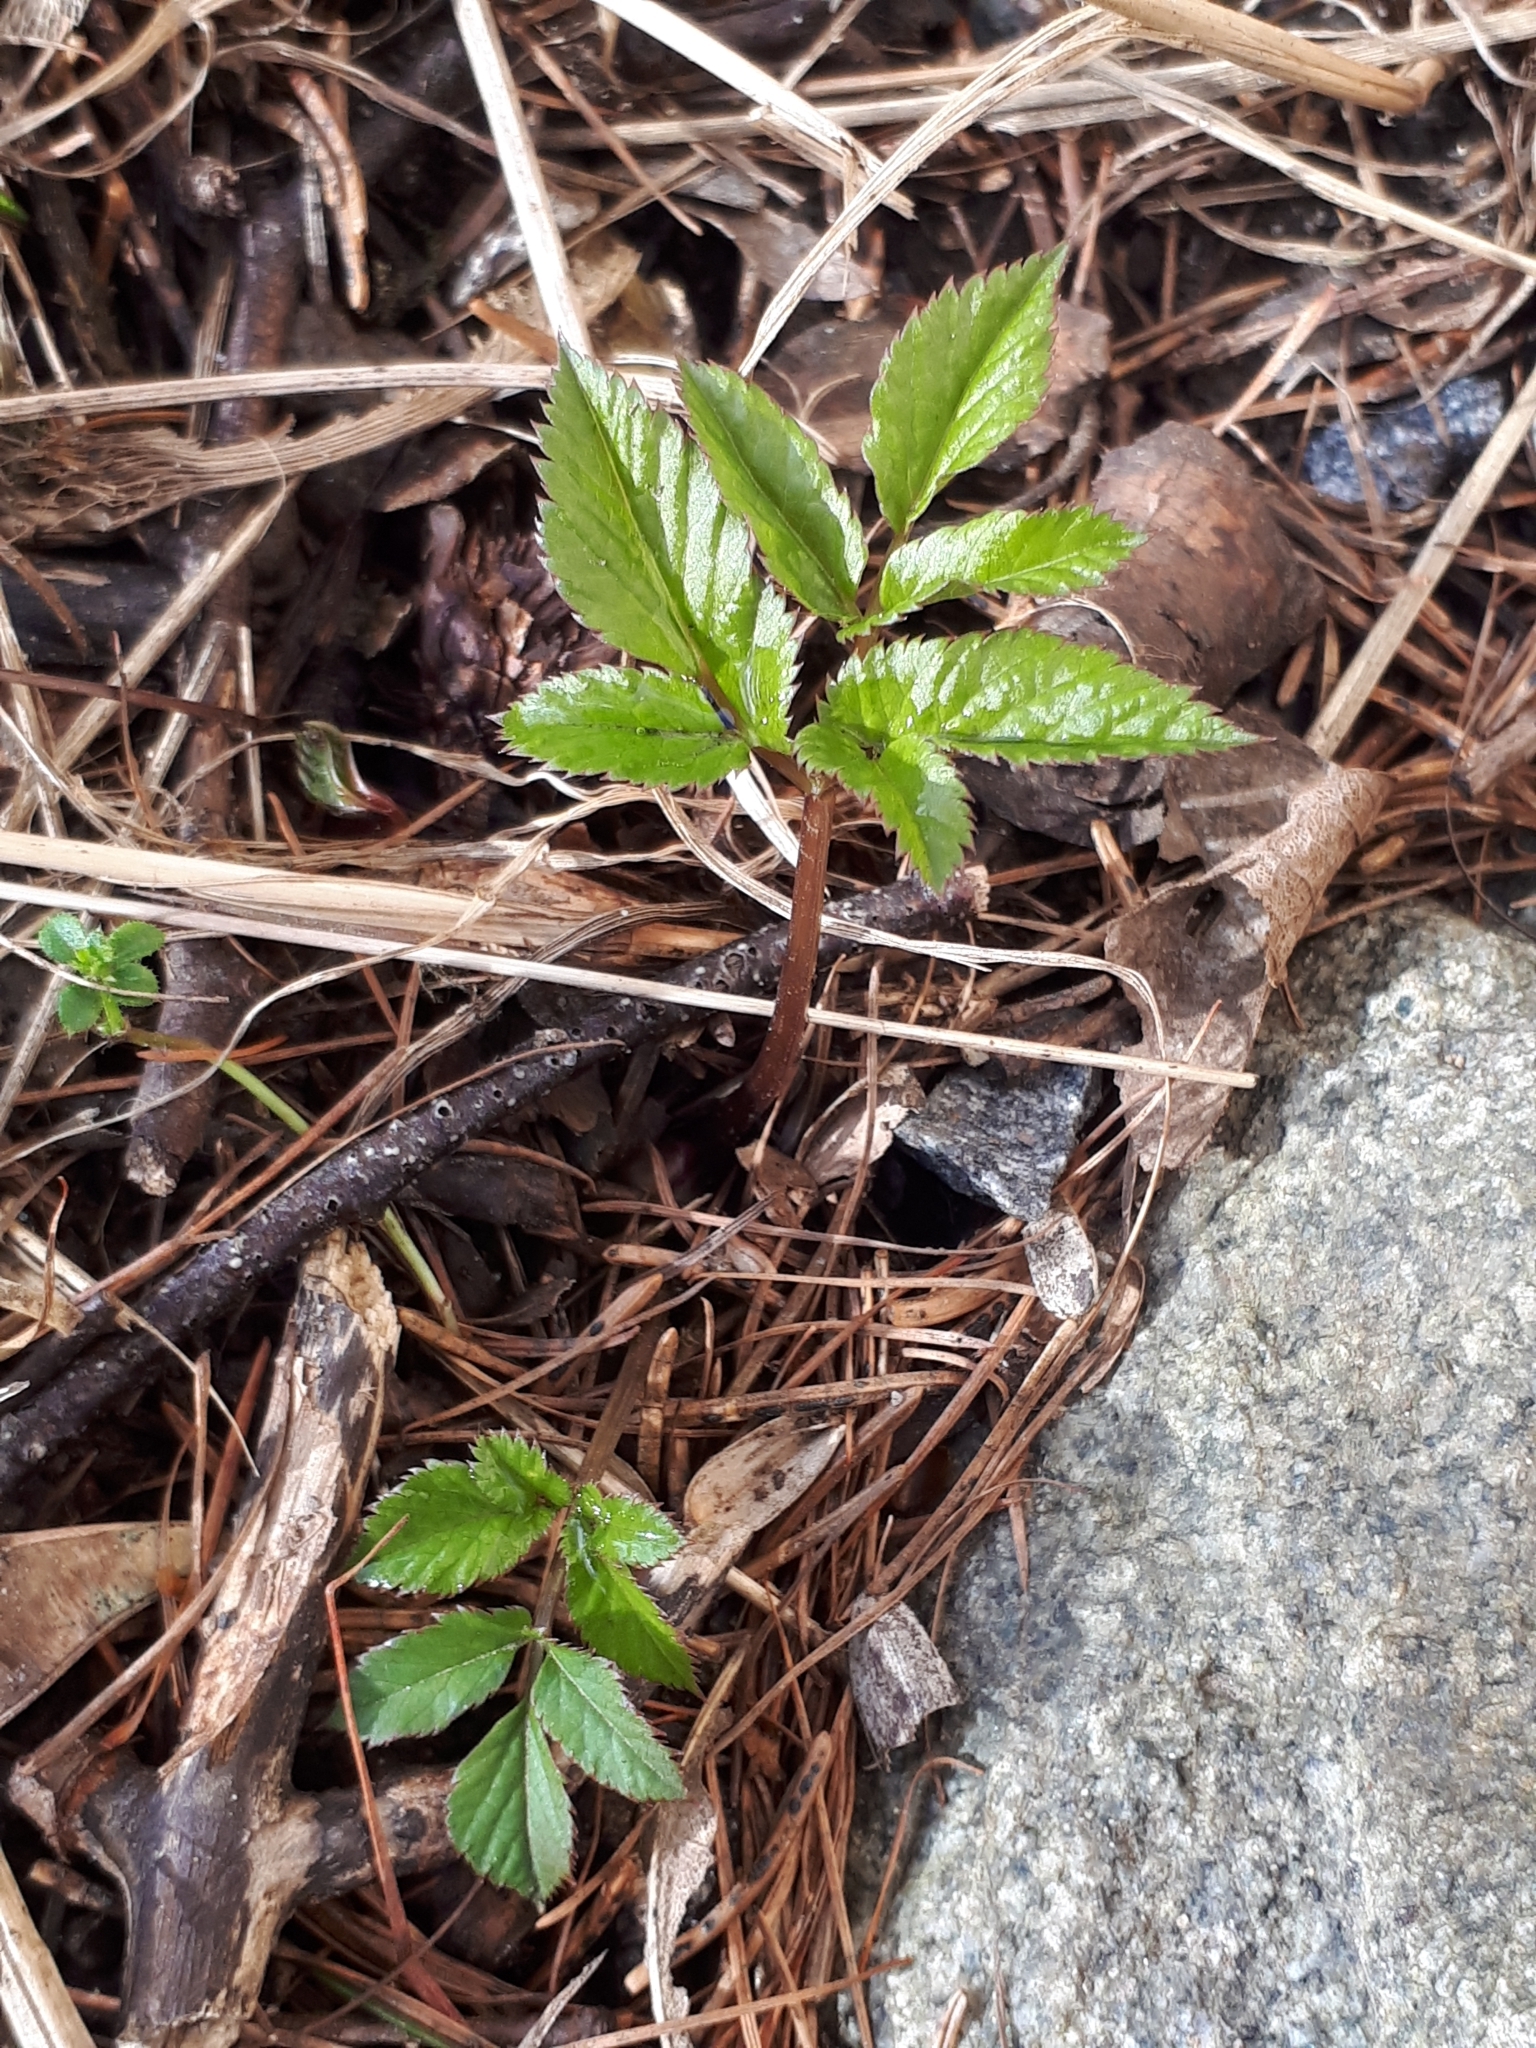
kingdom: Plantae
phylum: Tracheophyta
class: Magnoliopsida
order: Apiales
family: Apiaceae
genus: Aegopodium
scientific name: Aegopodium podagraria
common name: Ground-elder
